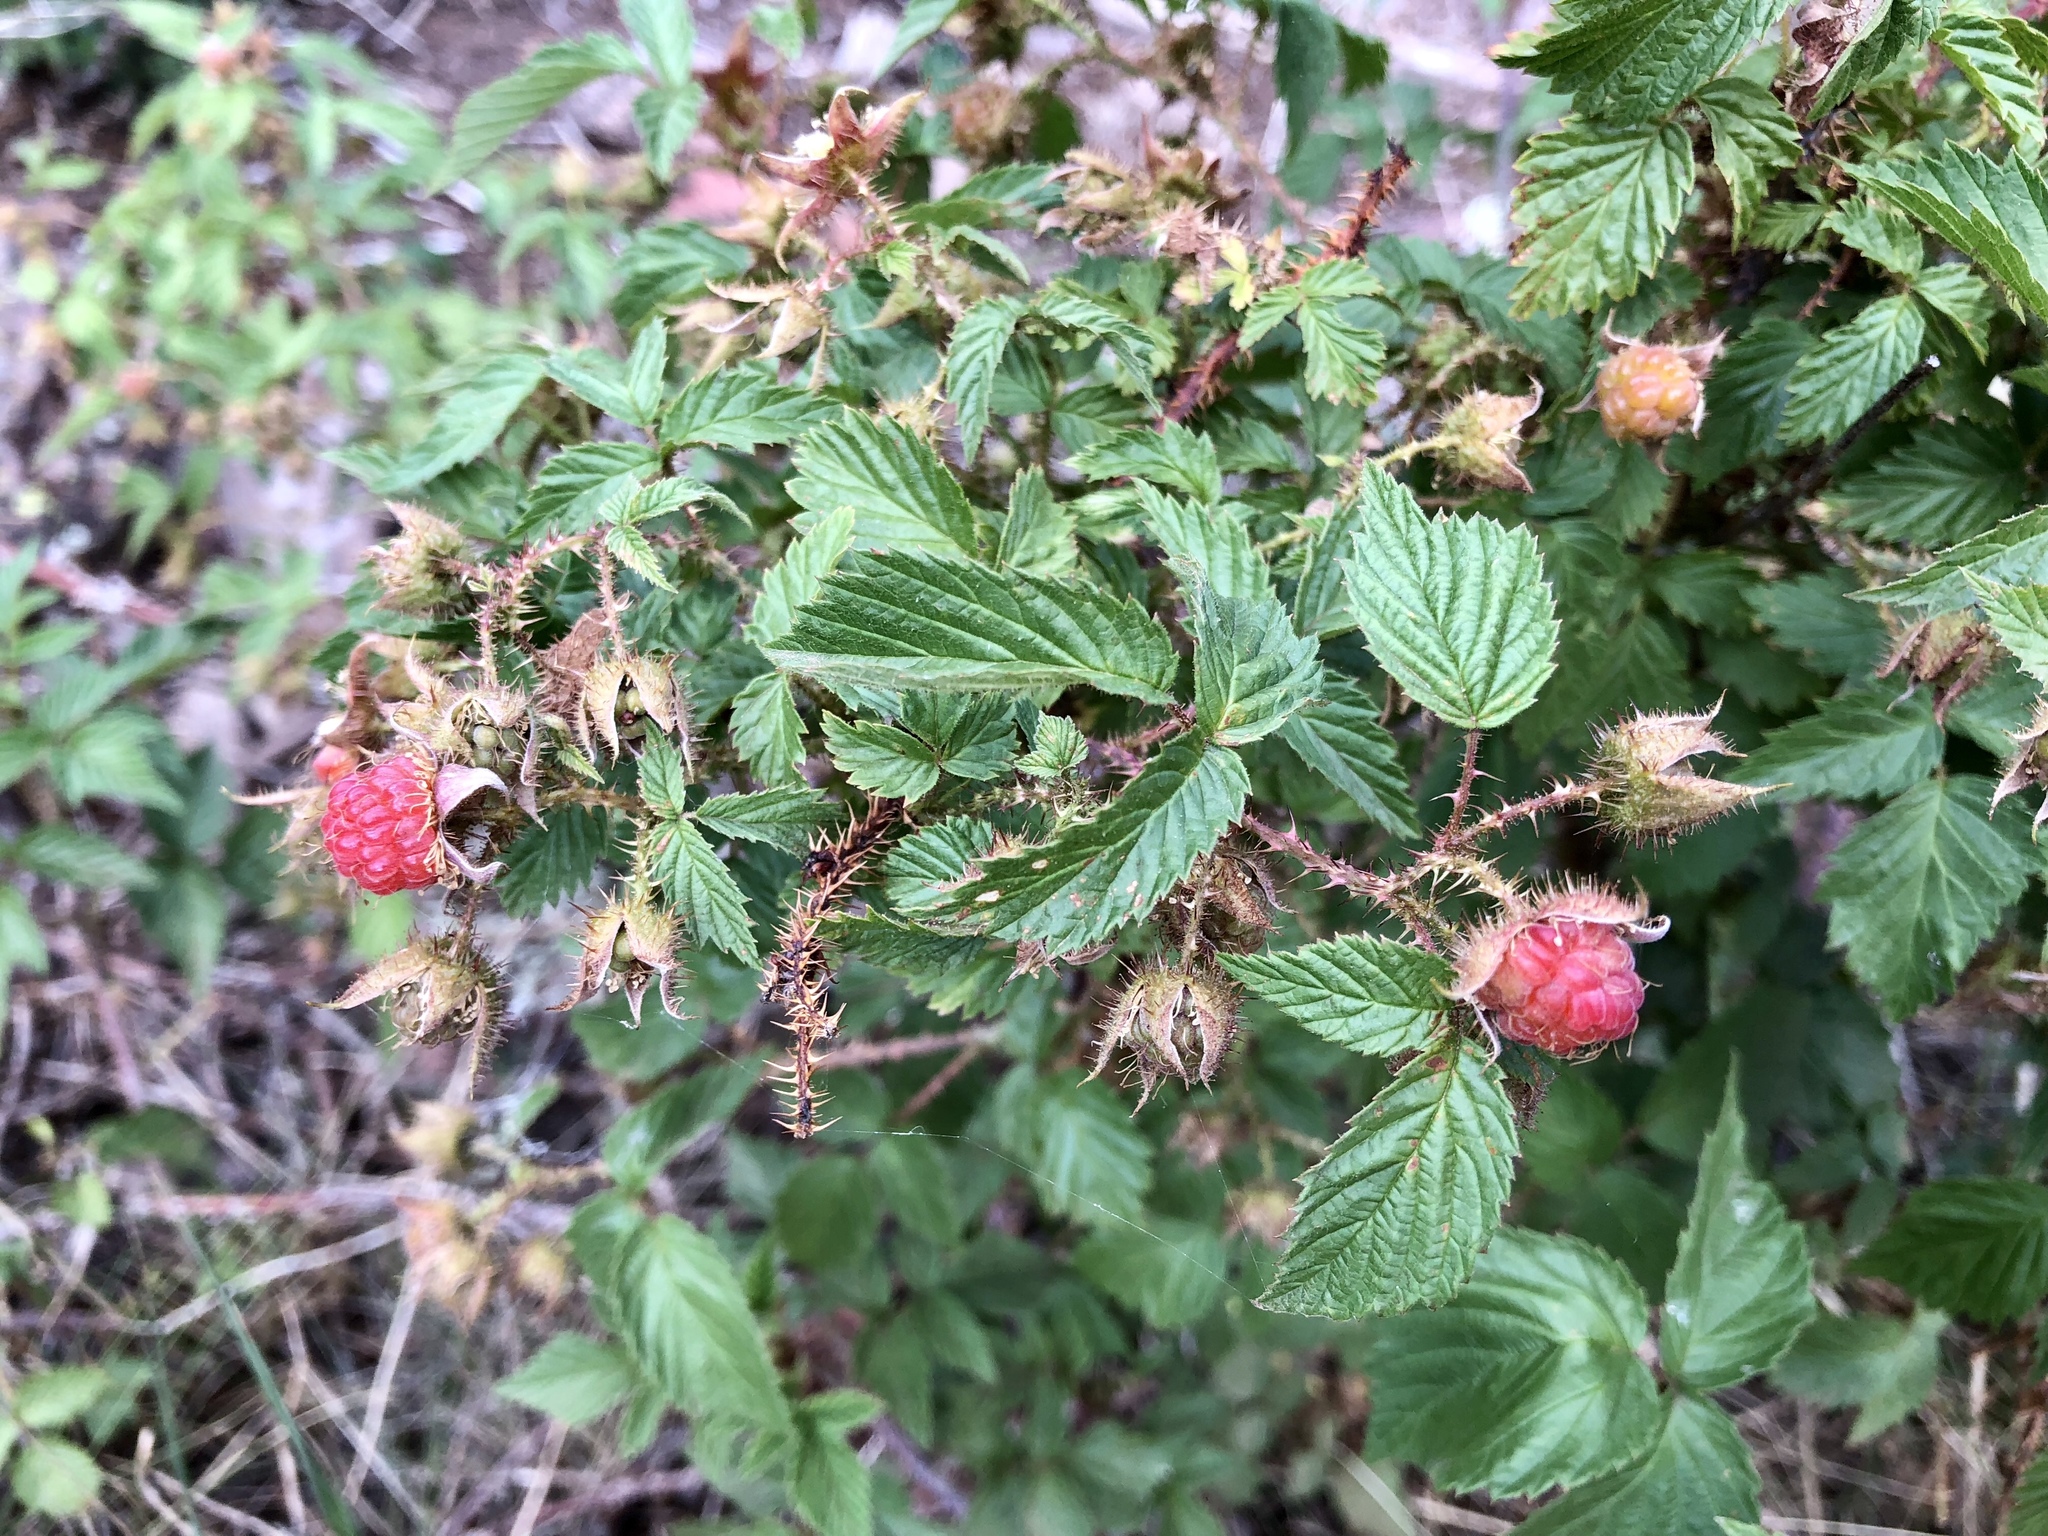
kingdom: Plantae
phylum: Tracheophyta
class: Magnoliopsida
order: Rosales
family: Rosaceae
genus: Rubus
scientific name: Rubus idaeus
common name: Raspberry
